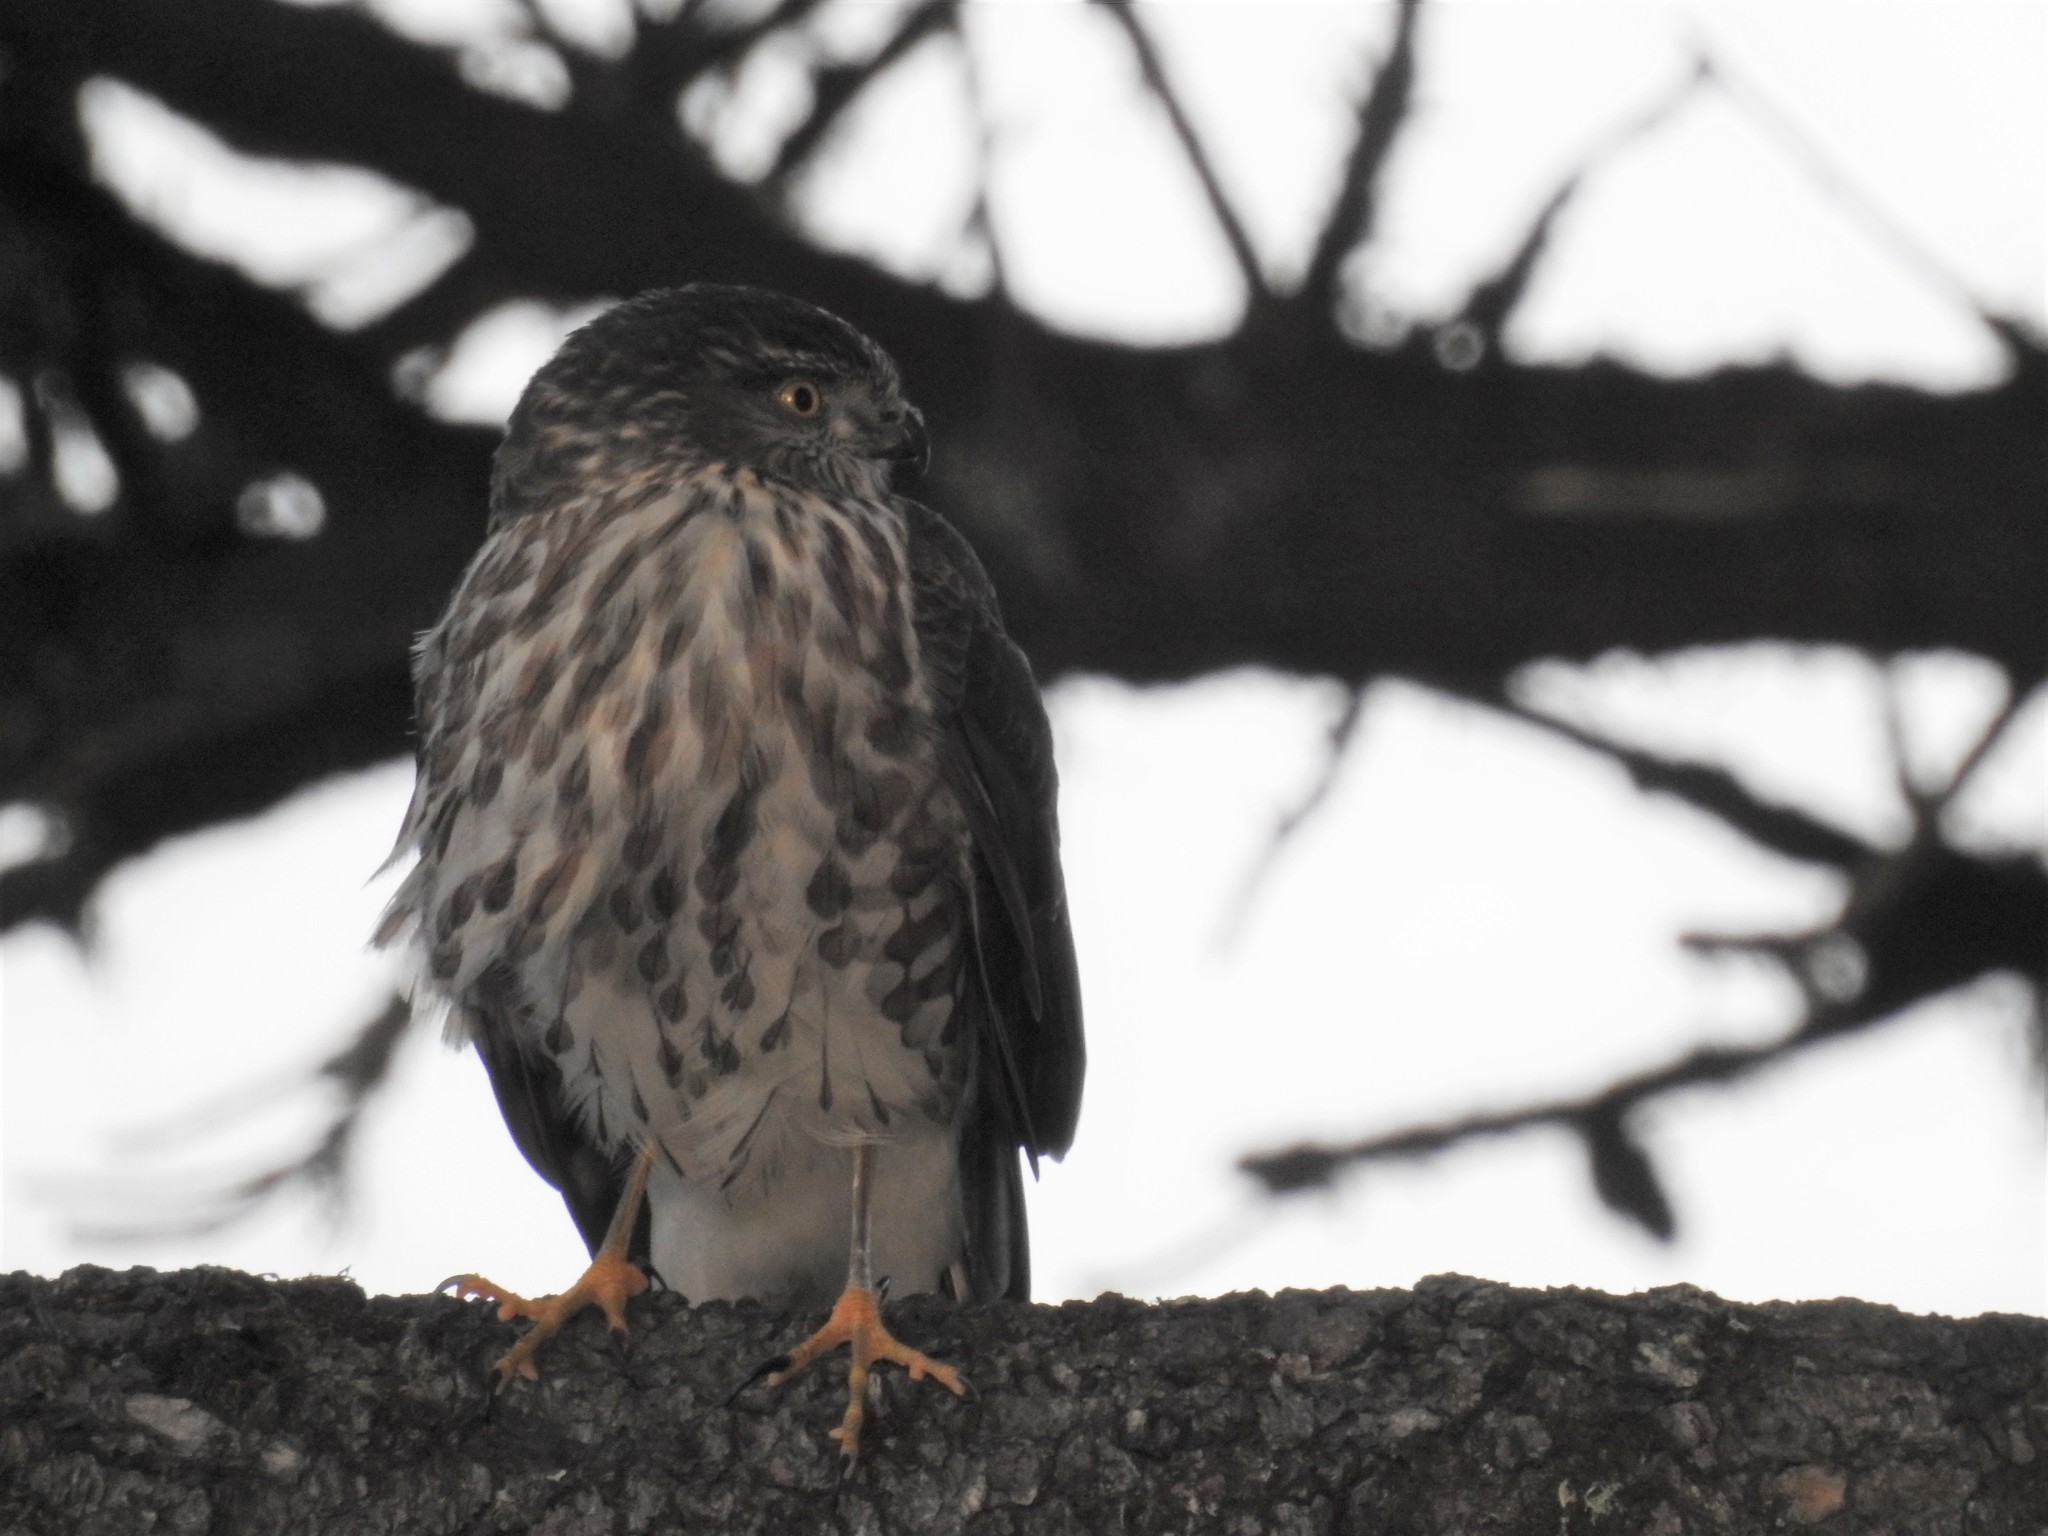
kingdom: Animalia
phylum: Chordata
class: Aves
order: Accipitriformes
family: Accipitridae
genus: Accipiter
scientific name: Accipiter striatus
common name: Sharp-shinned hawk
